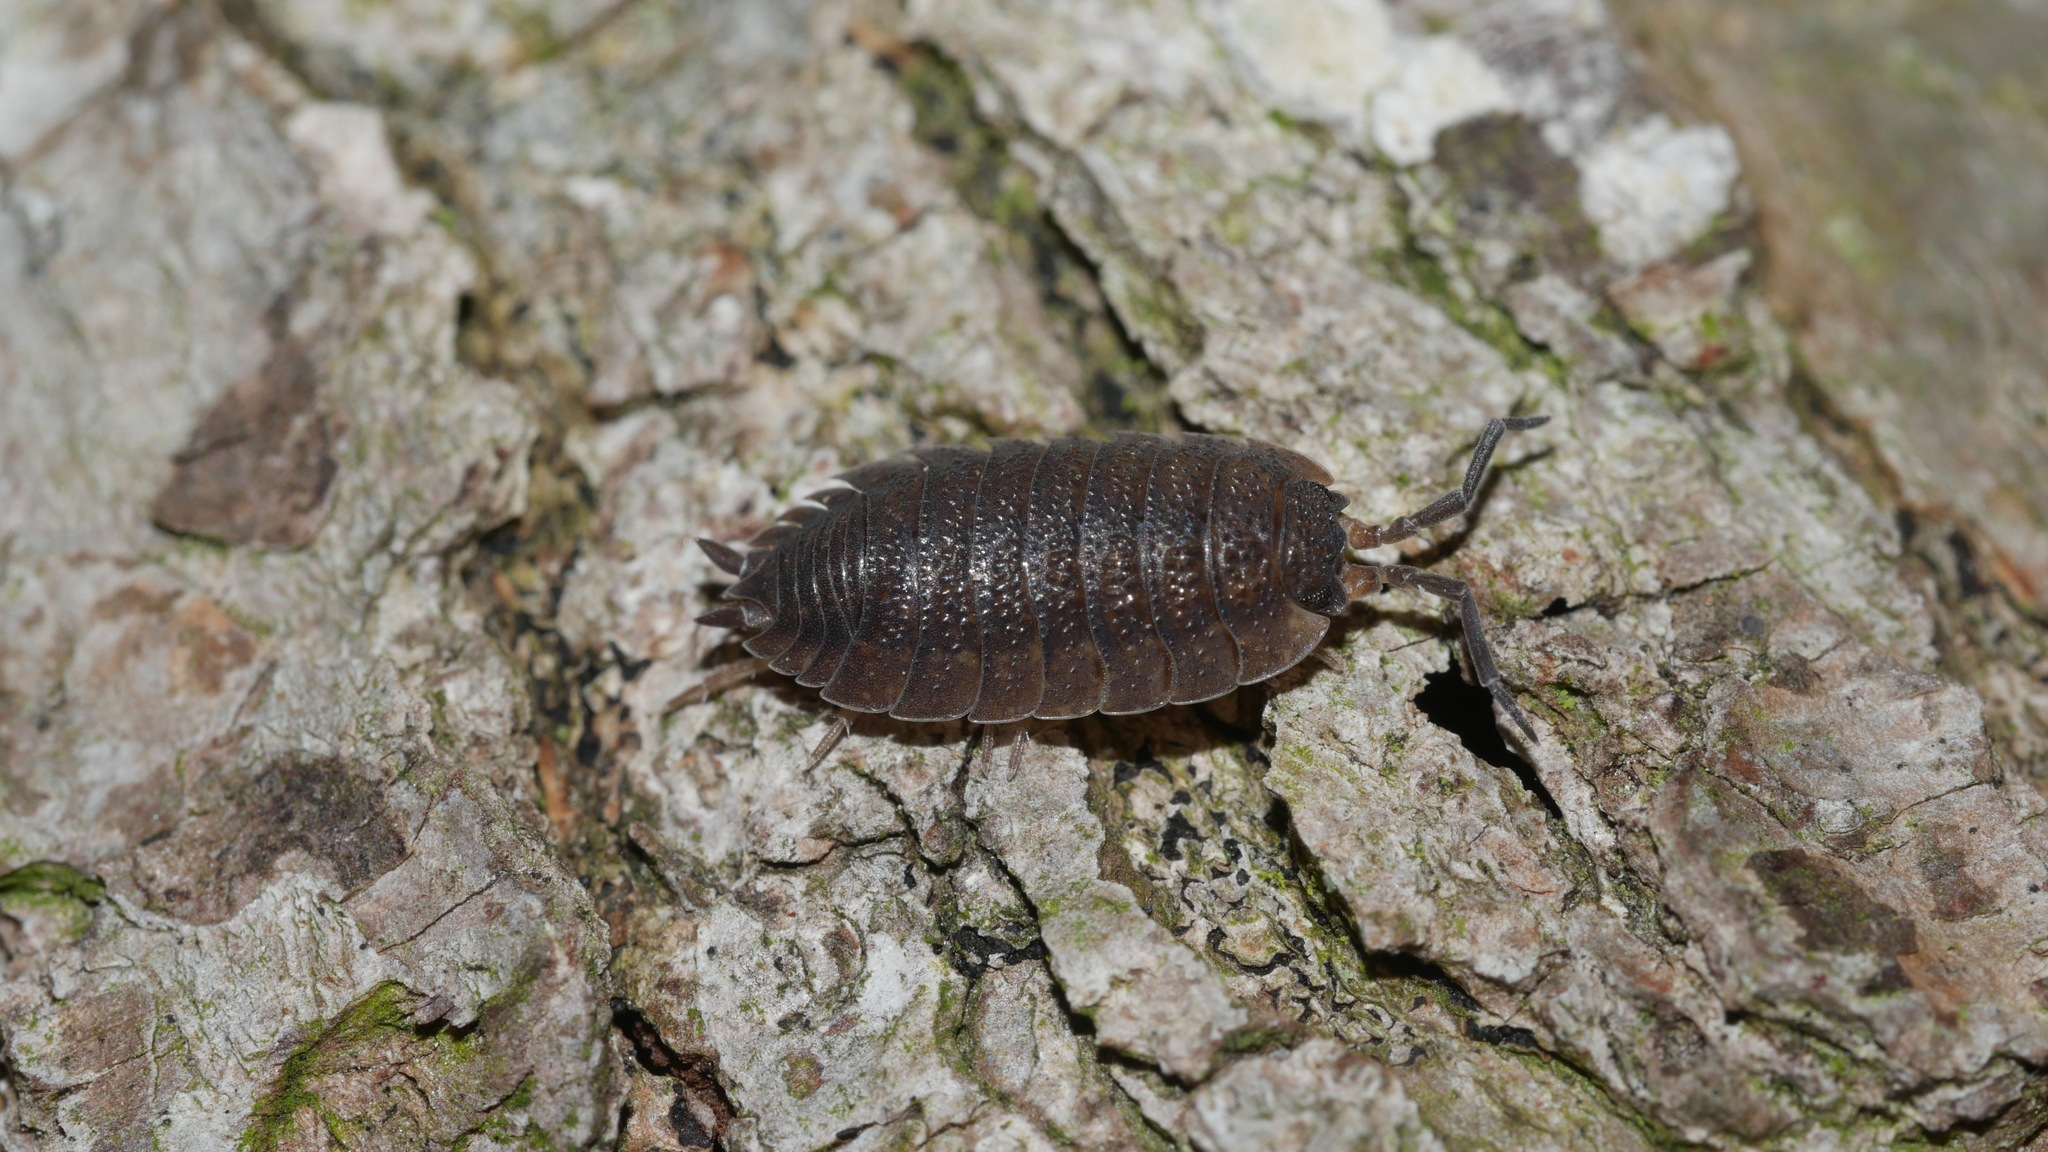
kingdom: Animalia
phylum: Arthropoda
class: Malacostraca
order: Isopoda
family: Porcellionidae
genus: Porcellio
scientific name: Porcellio scaber
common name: Common rough woodlouse
